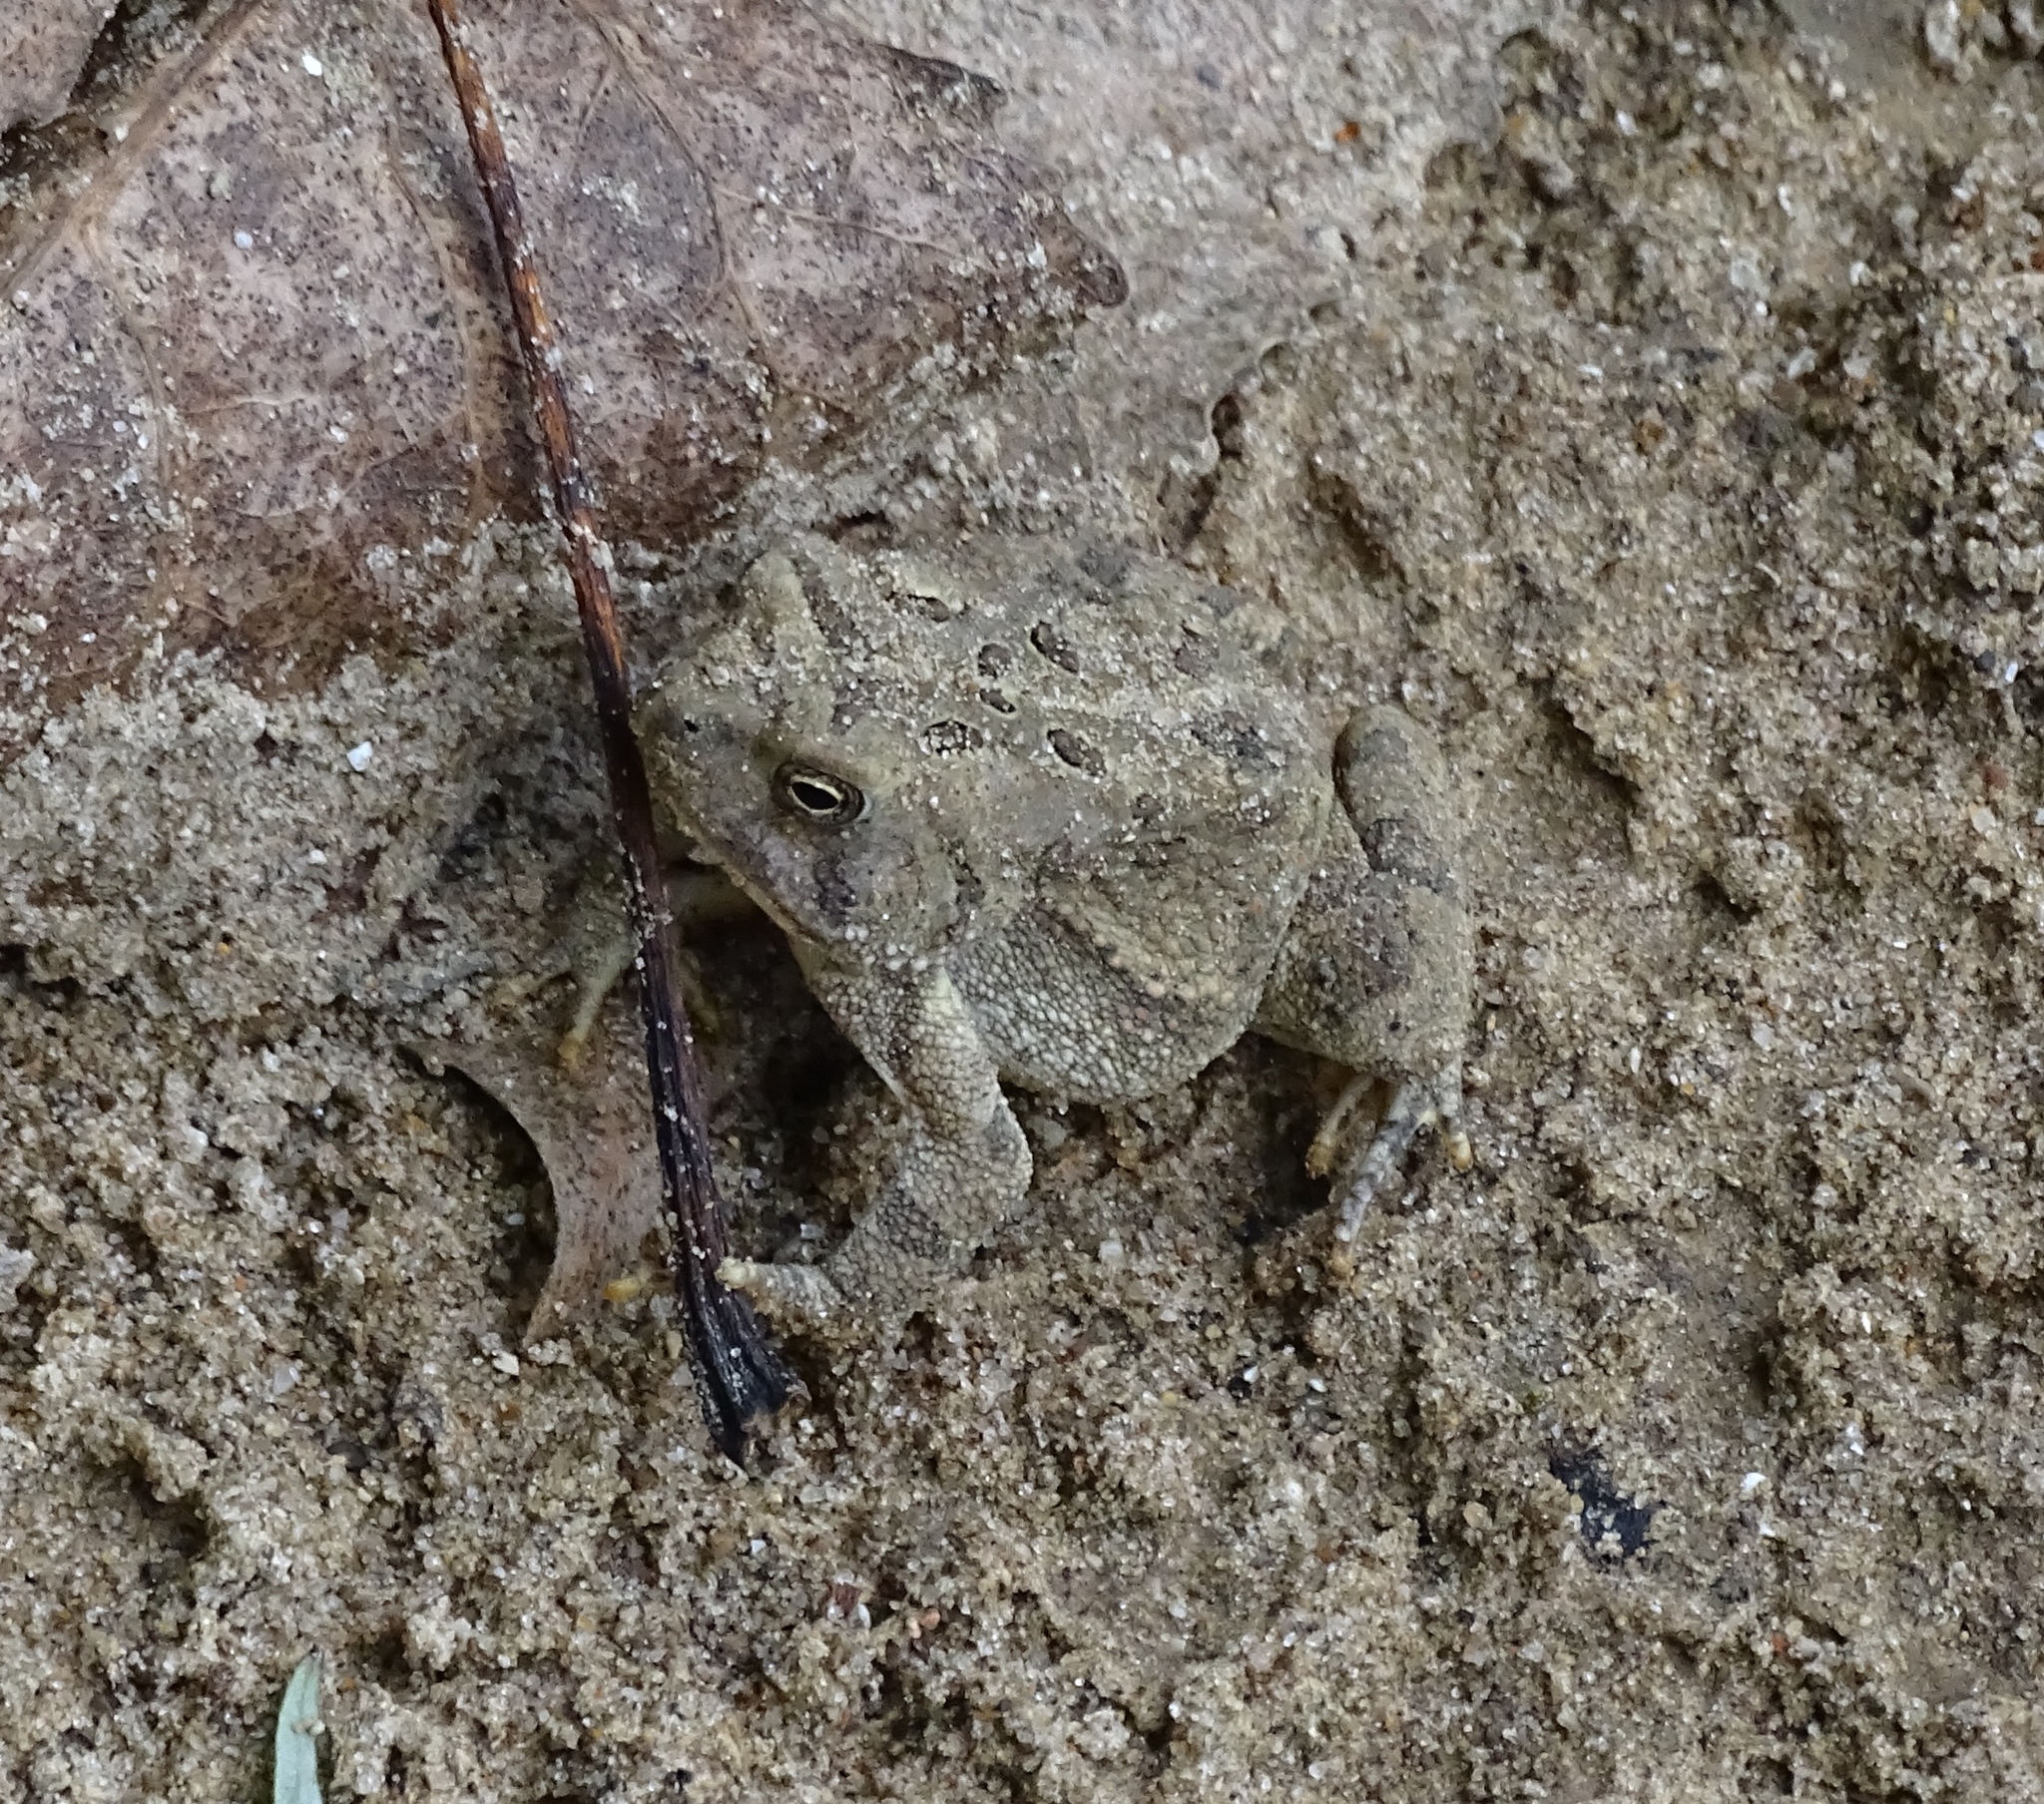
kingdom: Animalia
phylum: Chordata
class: Amphibia
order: Anura
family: Bufonidae
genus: Anaxyrus
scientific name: Anaxyrus fowleri
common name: Fowler's toad
